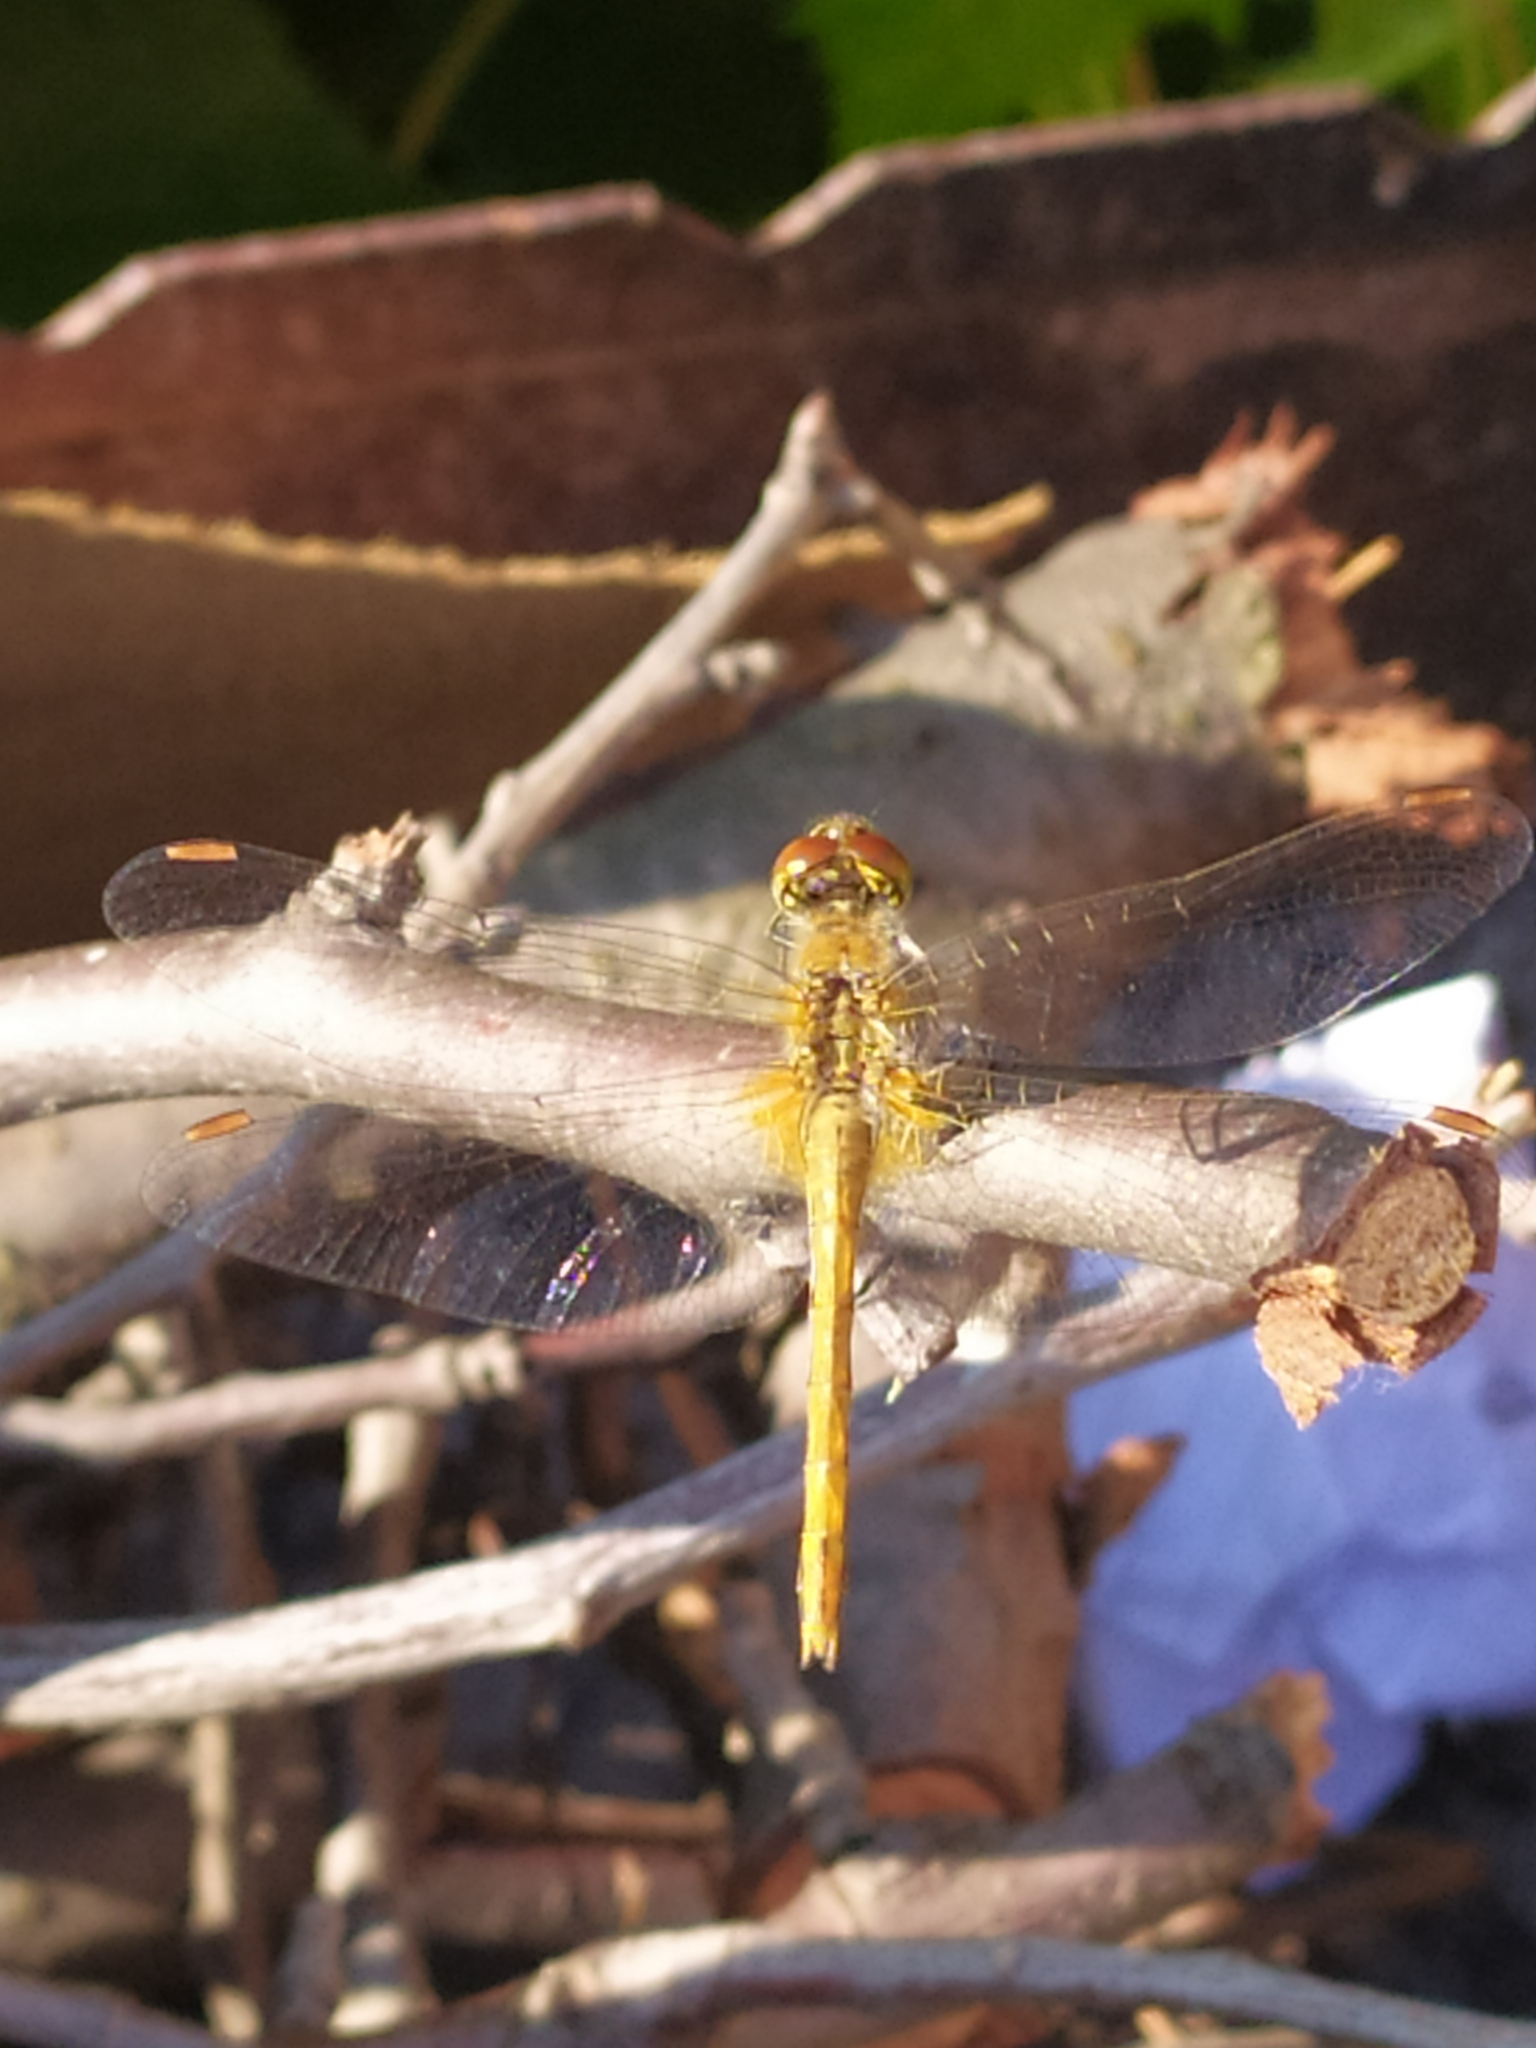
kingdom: Animalia
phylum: Arthropoda
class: Insecta
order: Odonata
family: Libellulidae
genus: Sympetrum
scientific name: Sympetrum flaveolum
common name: Yellow-winged darter
